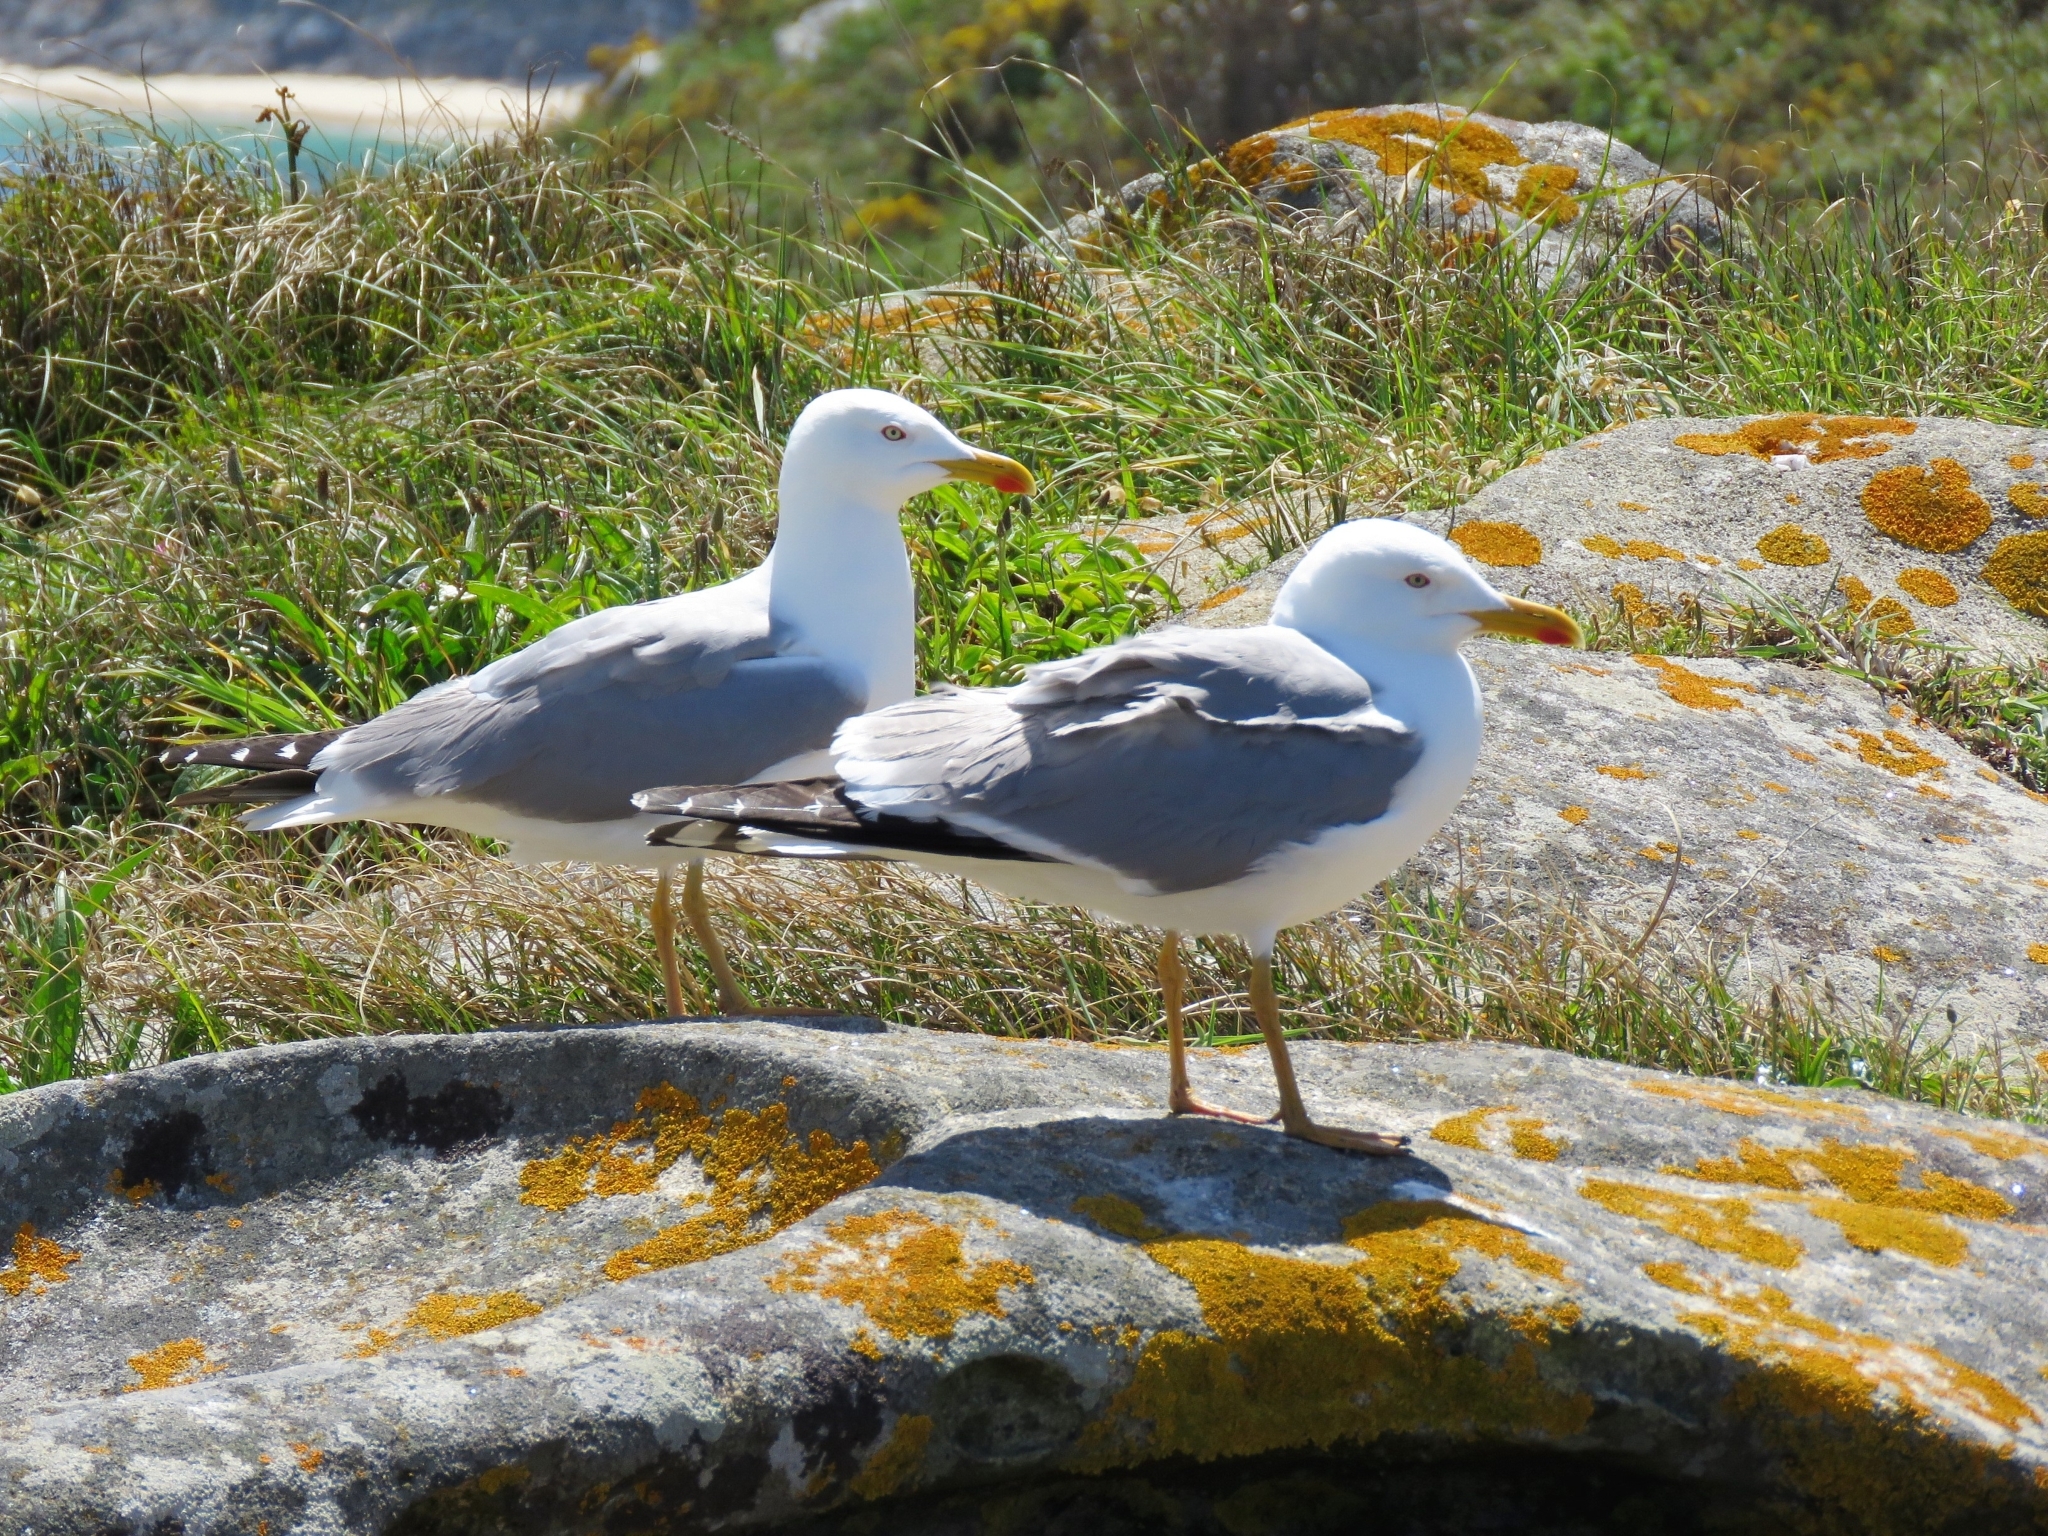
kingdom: Animalia
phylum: Chordata
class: Aves
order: Charadriiformes
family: Laridae
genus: Larus
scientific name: Larus michahellis
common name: Yellow-legged gull
